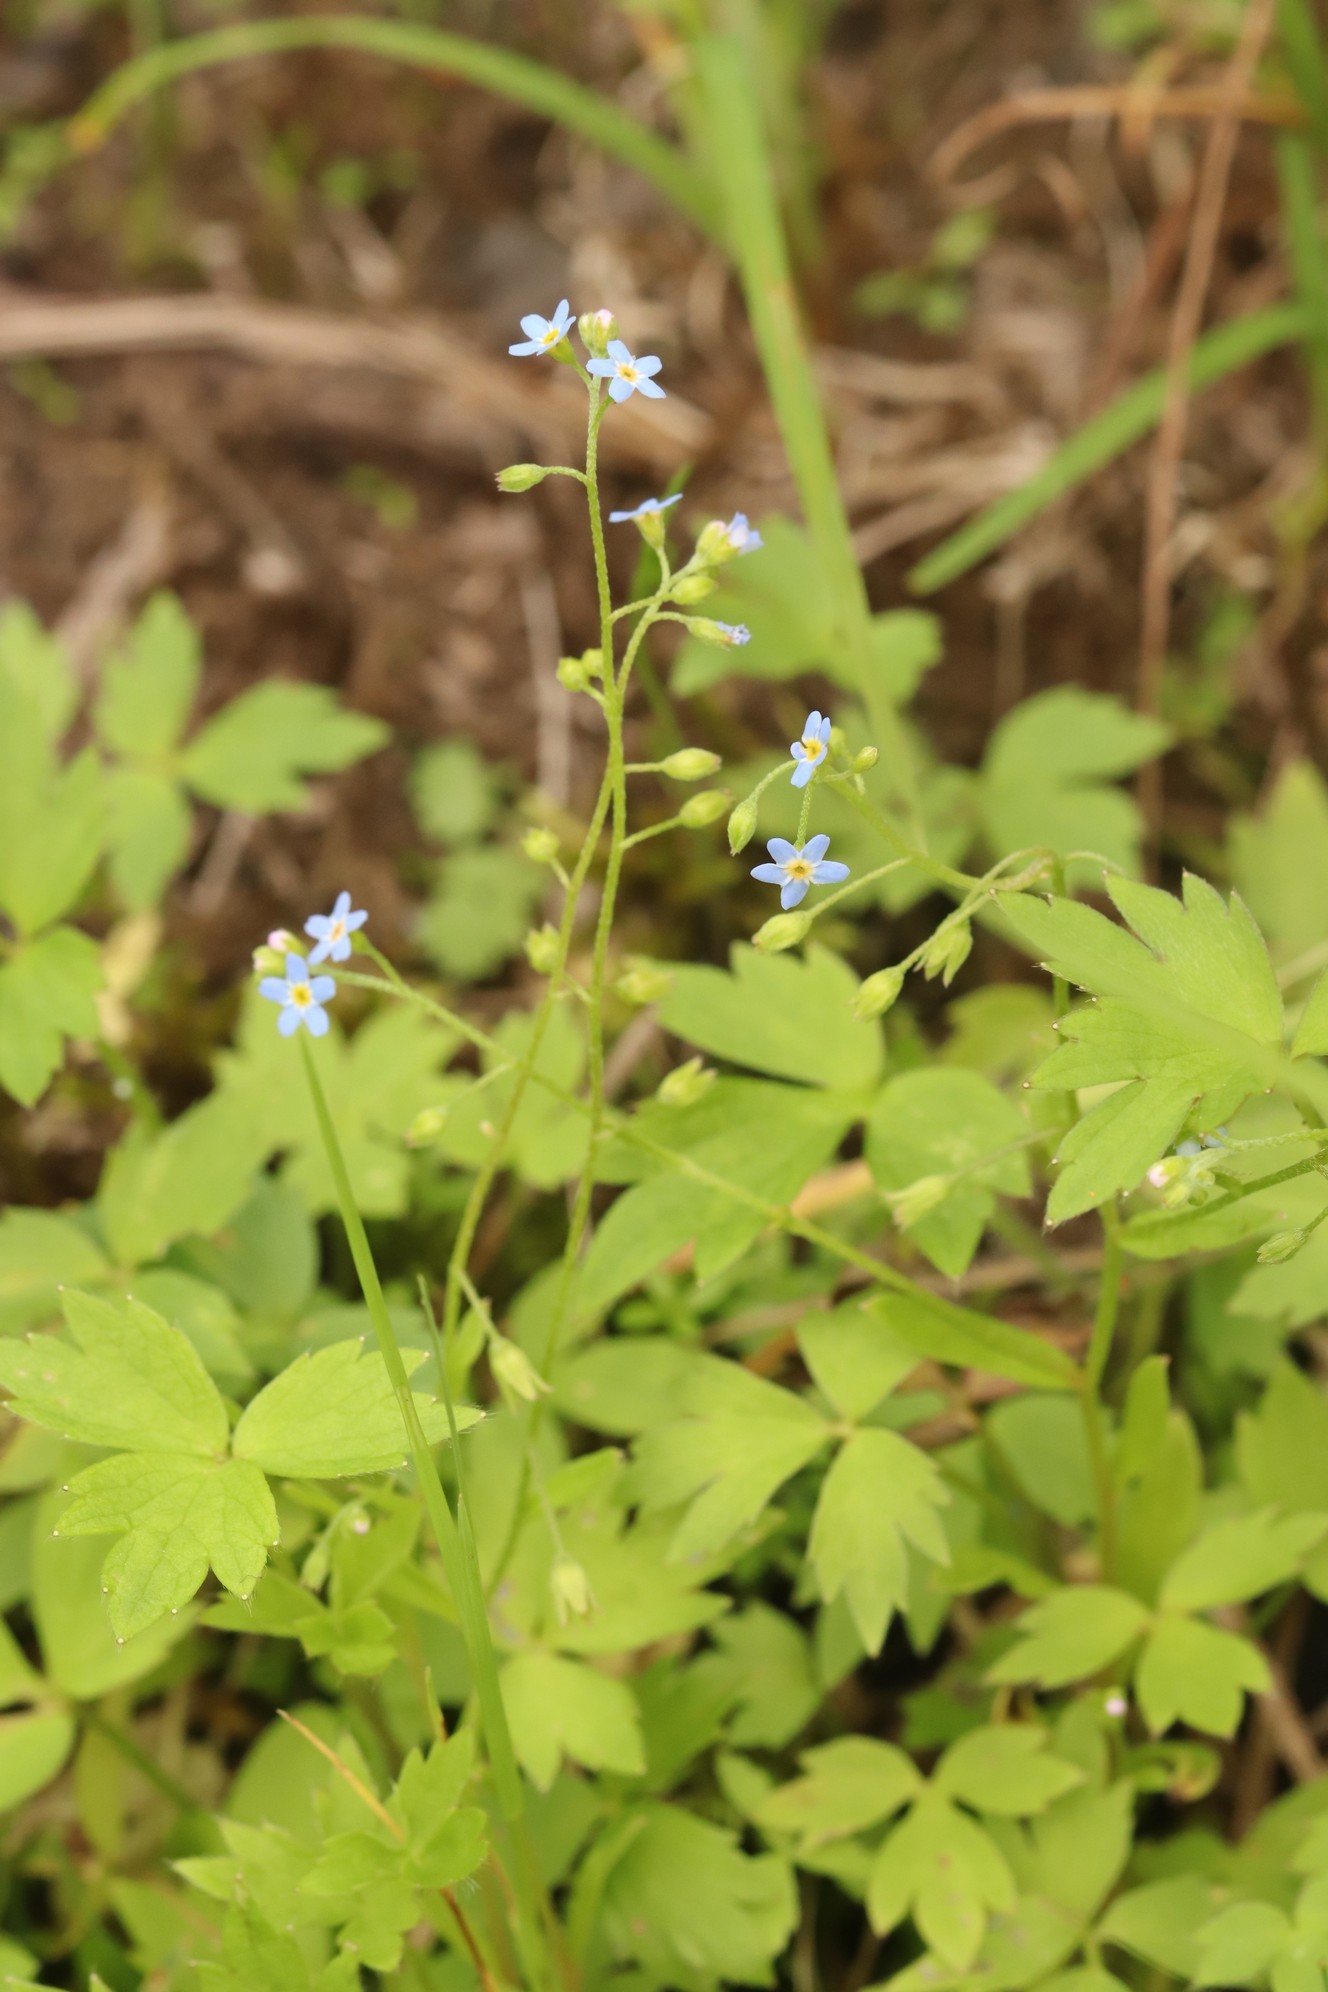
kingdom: Plantae
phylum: Tracheophyta
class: Magnoliopsida
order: Boraginales
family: Boraginaceae
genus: Myosotis
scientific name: Myosotis scorpioides
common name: Water forget-me-not
